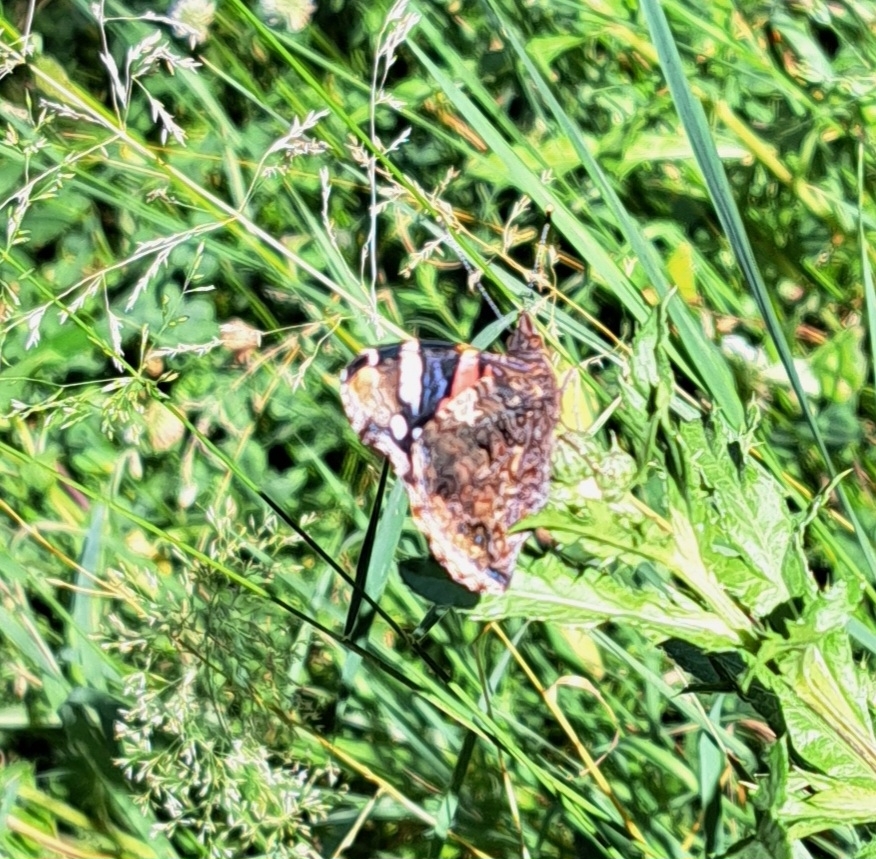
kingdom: Animalia
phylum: Arthropoda
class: Insecta
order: Lepidoptera
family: Nymphalidae
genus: Vanessa
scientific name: Vanessa atalanta
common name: Red admiral
